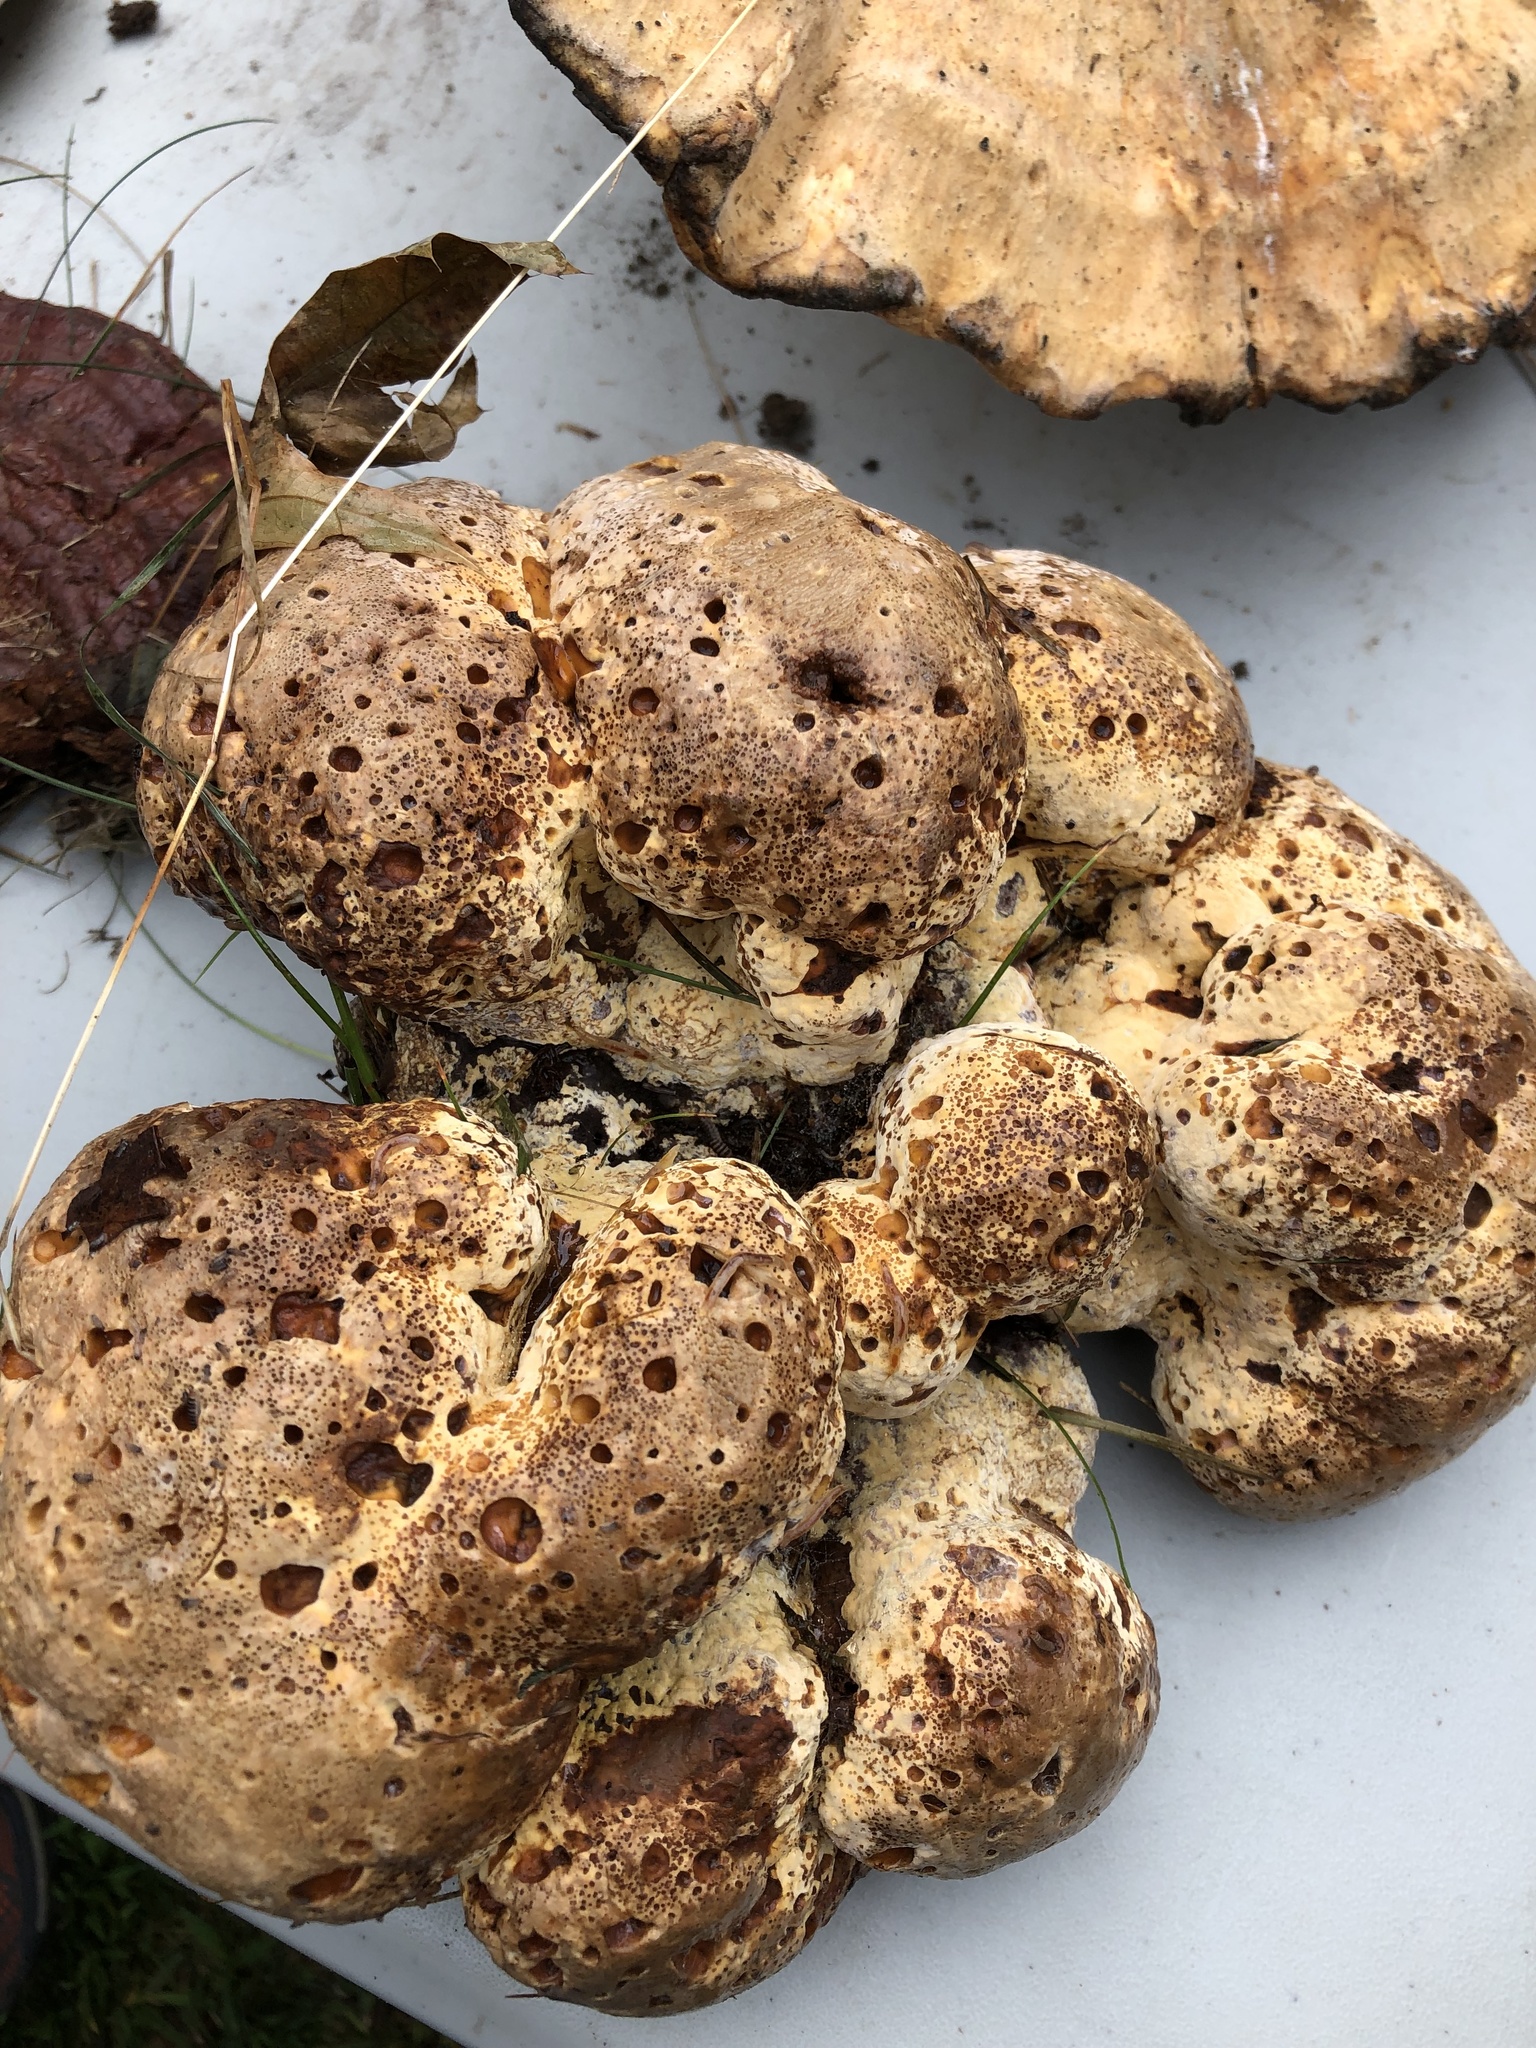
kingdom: Fungi
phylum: Basidiomycota
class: Agaricomycetes
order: Hymenochaetales
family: Hymenochaetaceae
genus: Pseudoinonotus
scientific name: Pseudoinonotus dryadeus
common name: Oak bracket
